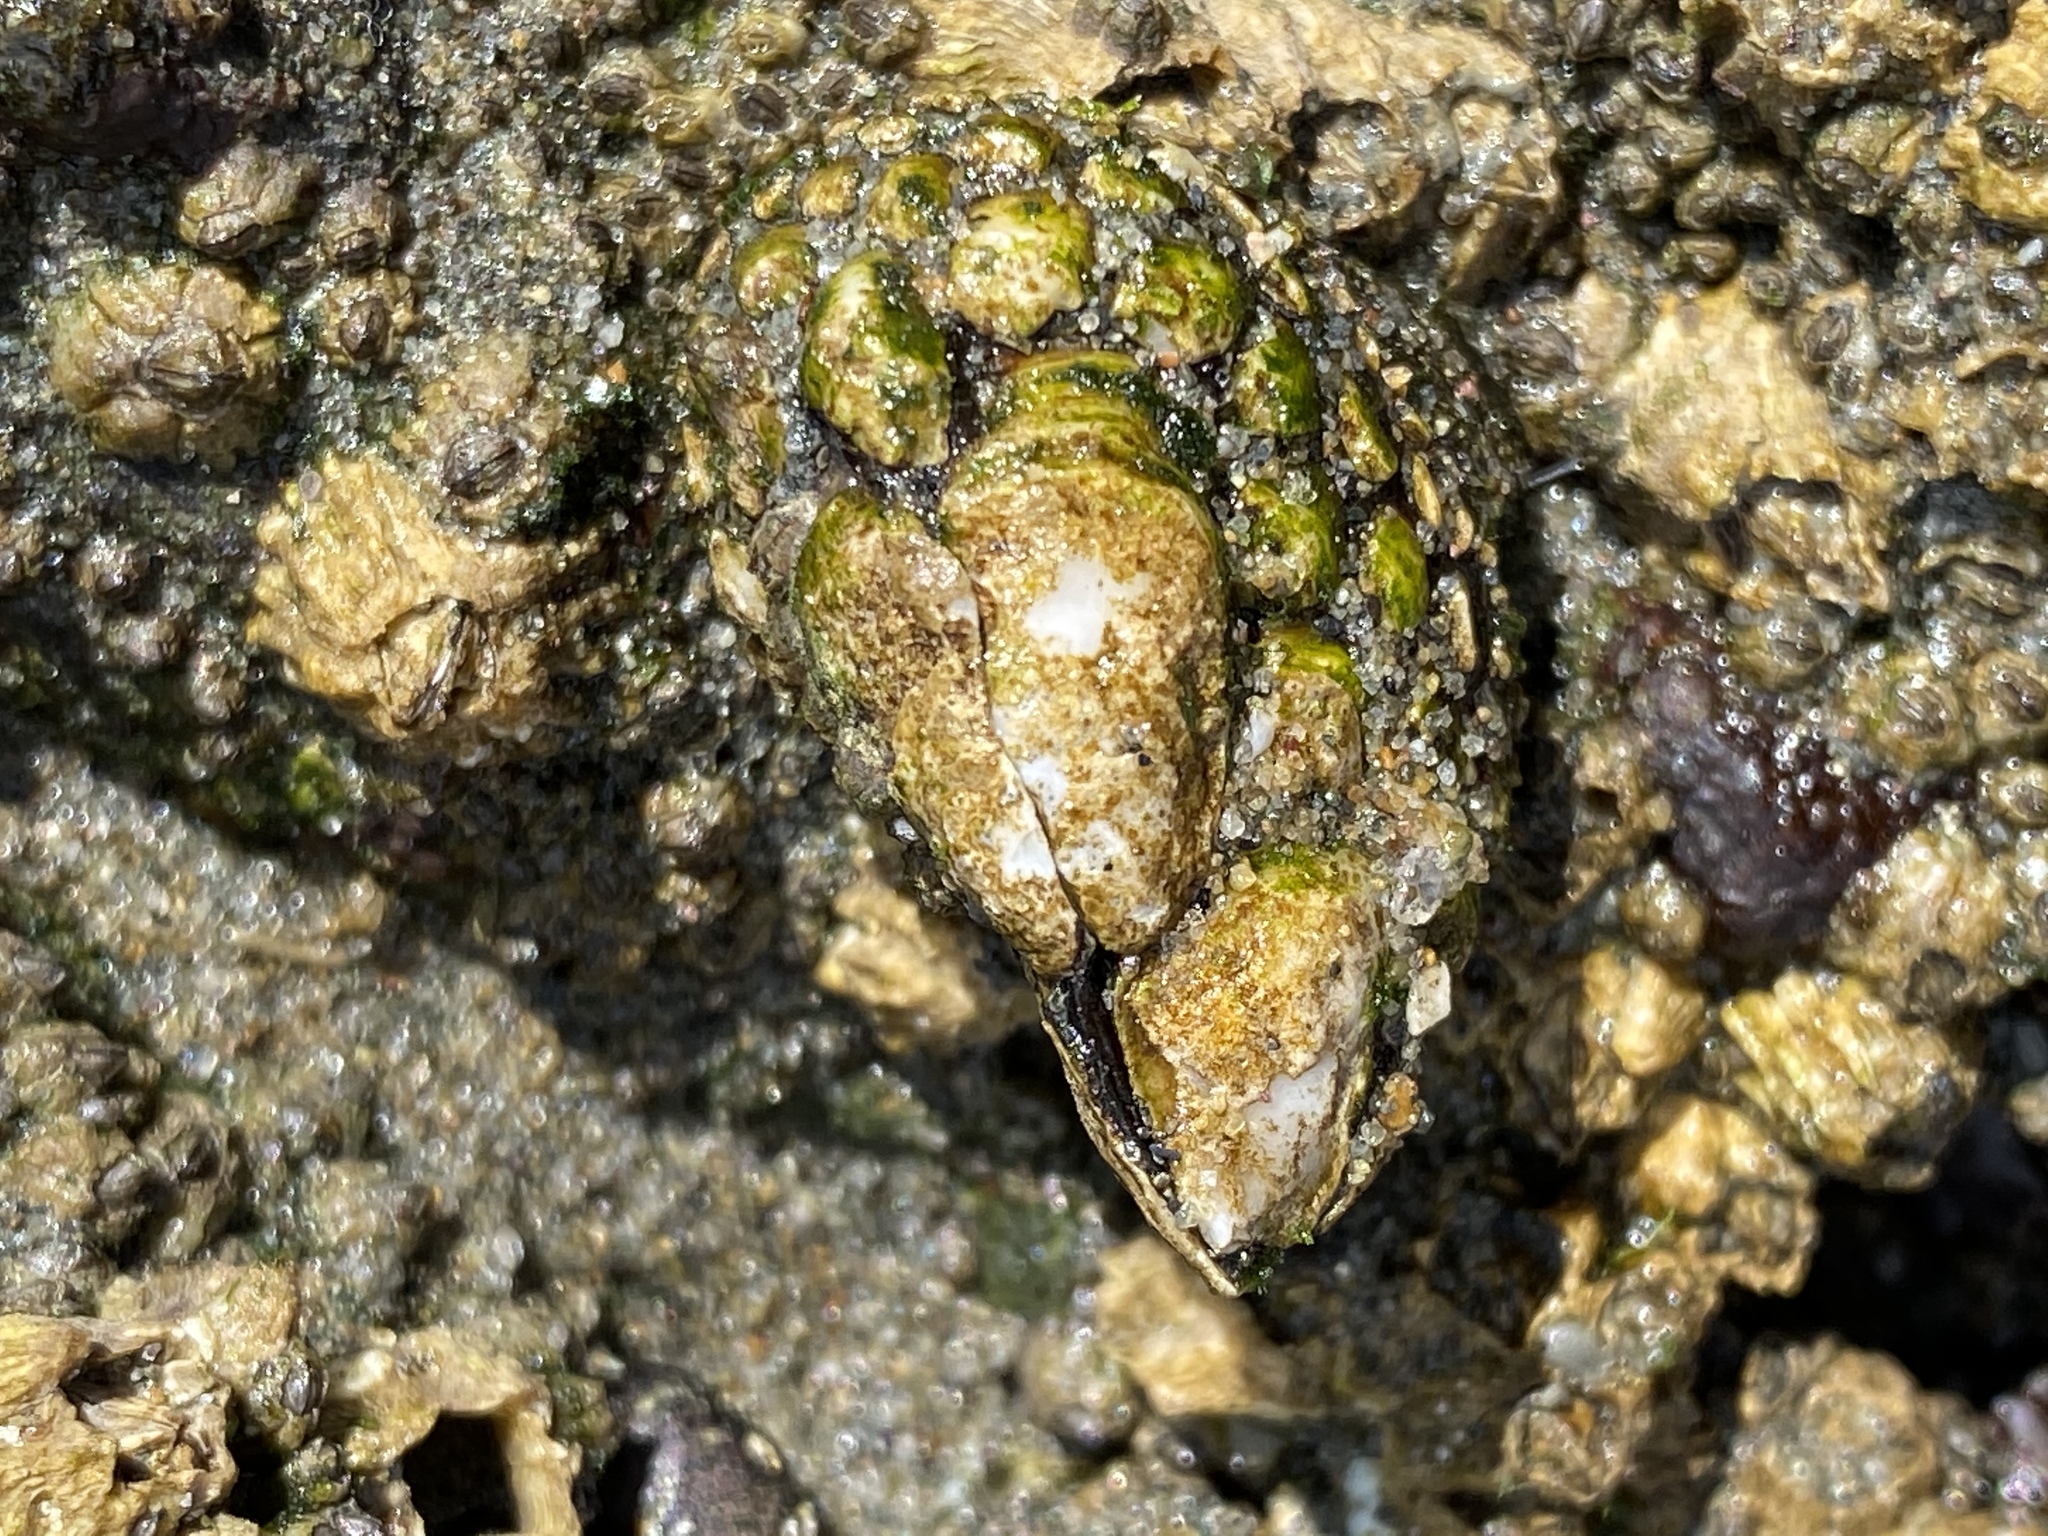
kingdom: Animalia
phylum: Arthropoda
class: Maxillopoda
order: Pedunculata
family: Pollicipedidae
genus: Pollicipes
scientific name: Pollicipes polymerus
